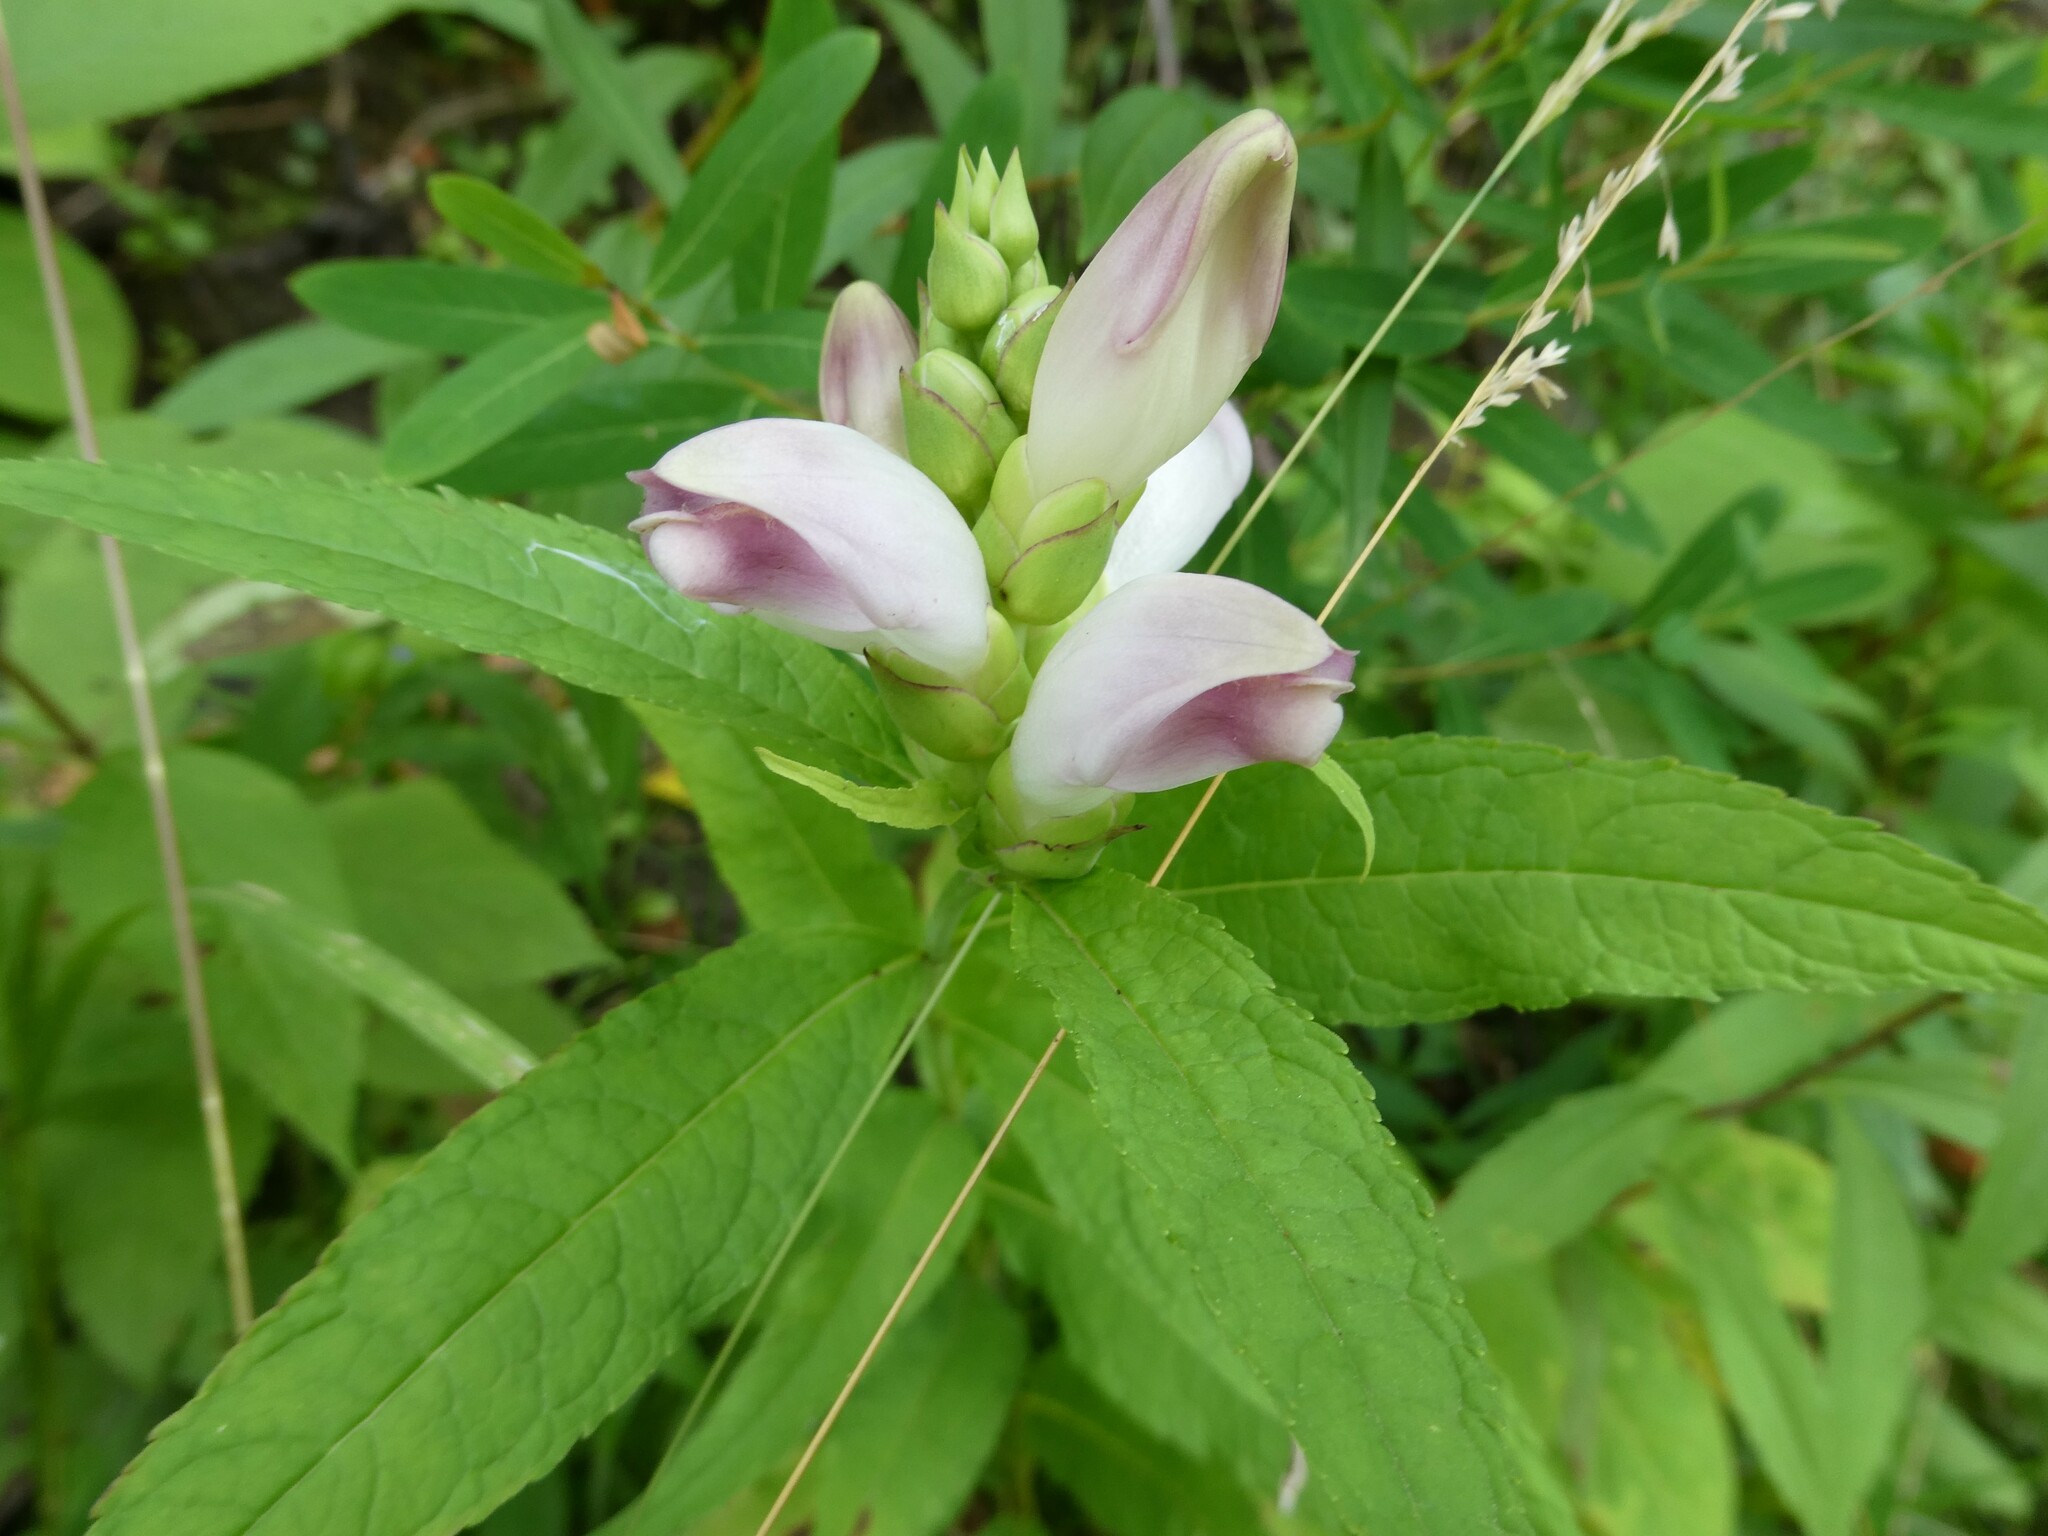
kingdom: Plantae
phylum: Tracheophyta
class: Magnoliopsida
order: Lamiales
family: Plantaginaceae
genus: Chelone
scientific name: Chelone glabra
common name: Snakehead
